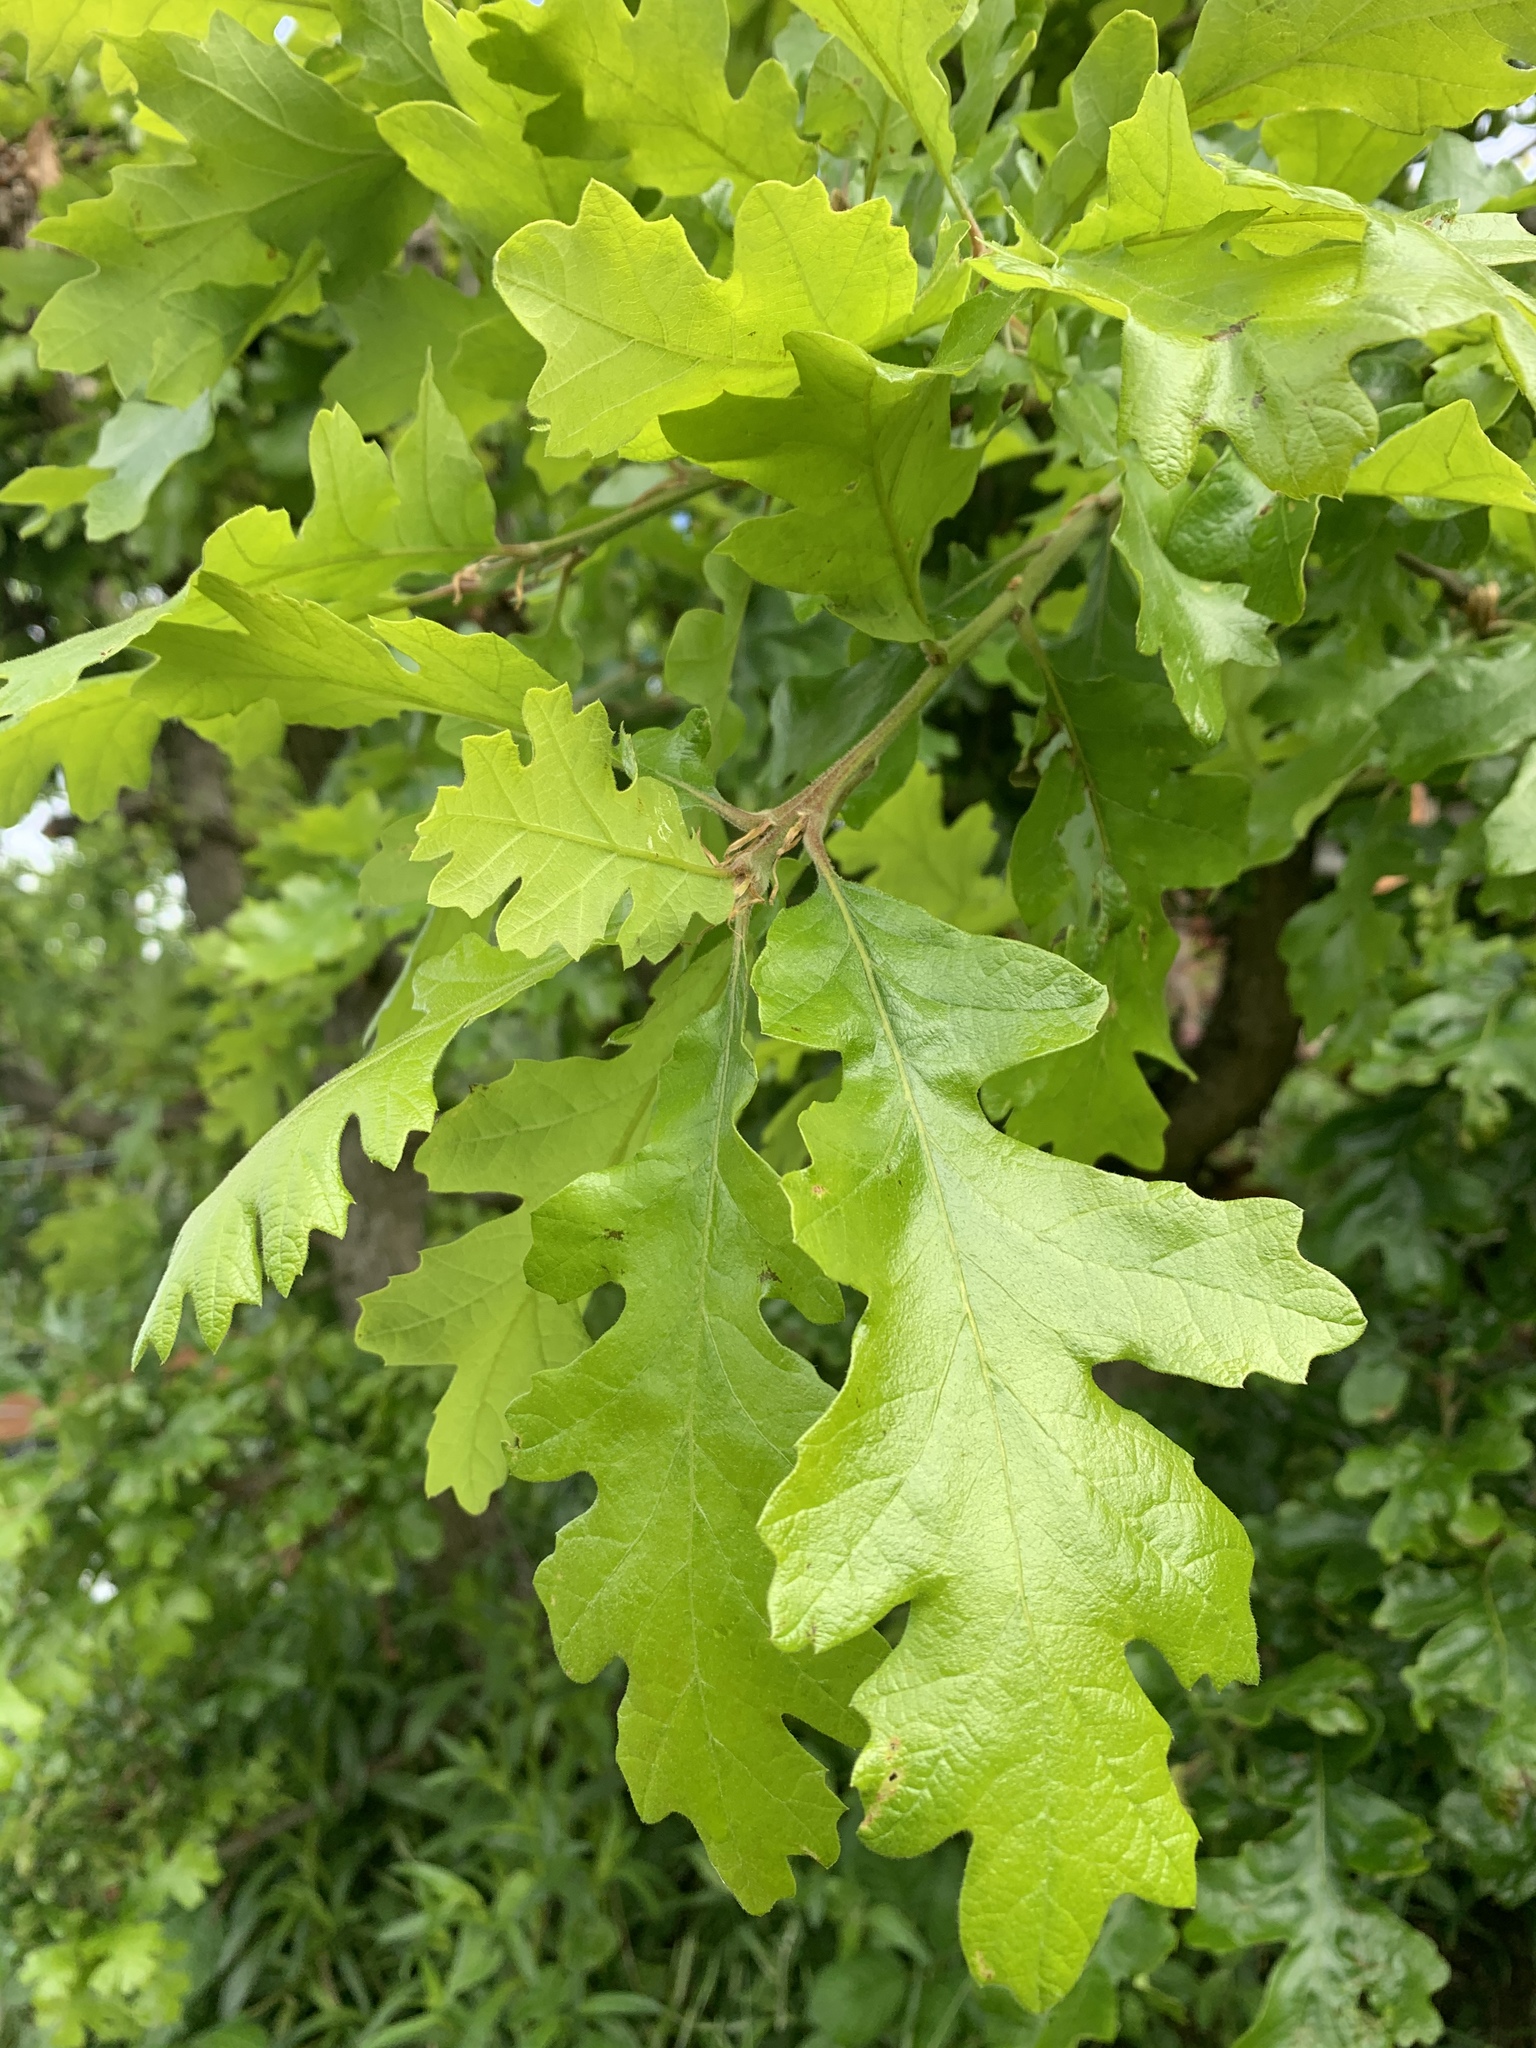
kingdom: Plantae
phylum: Tracheophyta
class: Magnoliopsida
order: Fagales
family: Fagaceae
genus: Quercus
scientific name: Quercus garryana
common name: Garry oak
